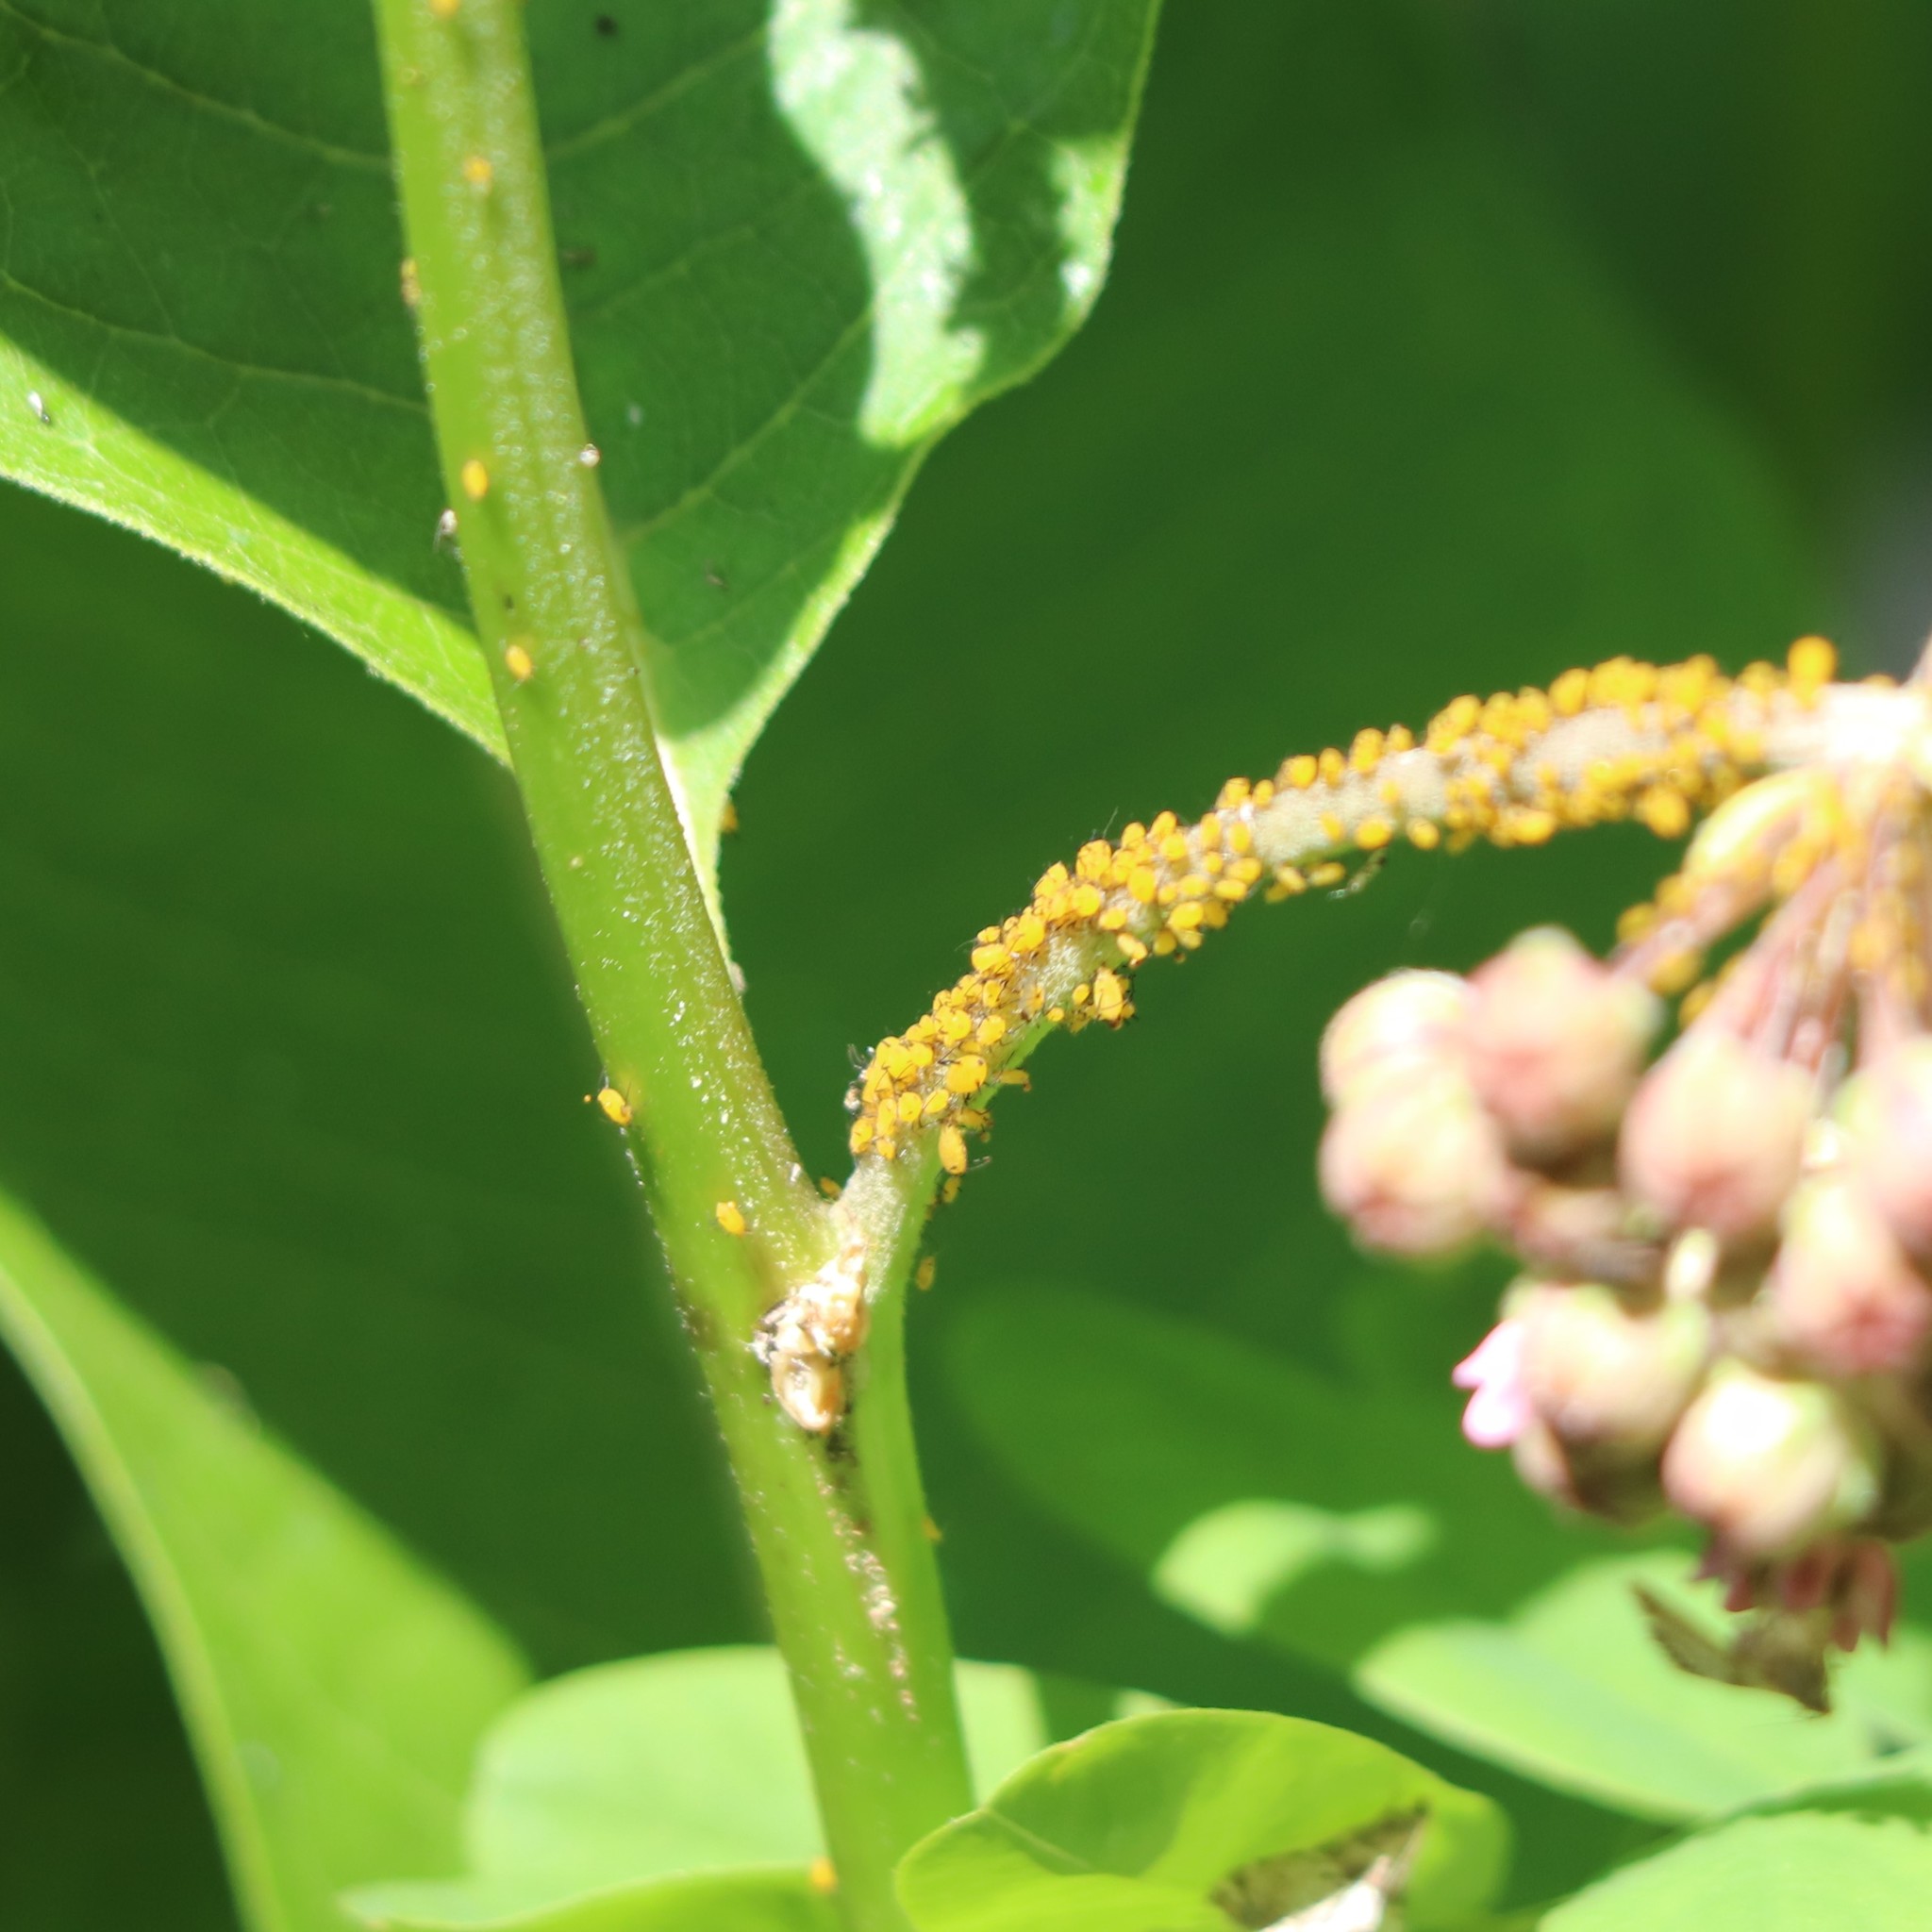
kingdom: Animalia
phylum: Arthropoda
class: Insecta
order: Hemiptera
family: Aphididae
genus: Aphis
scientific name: Aphis nerii
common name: Oleander aphid
